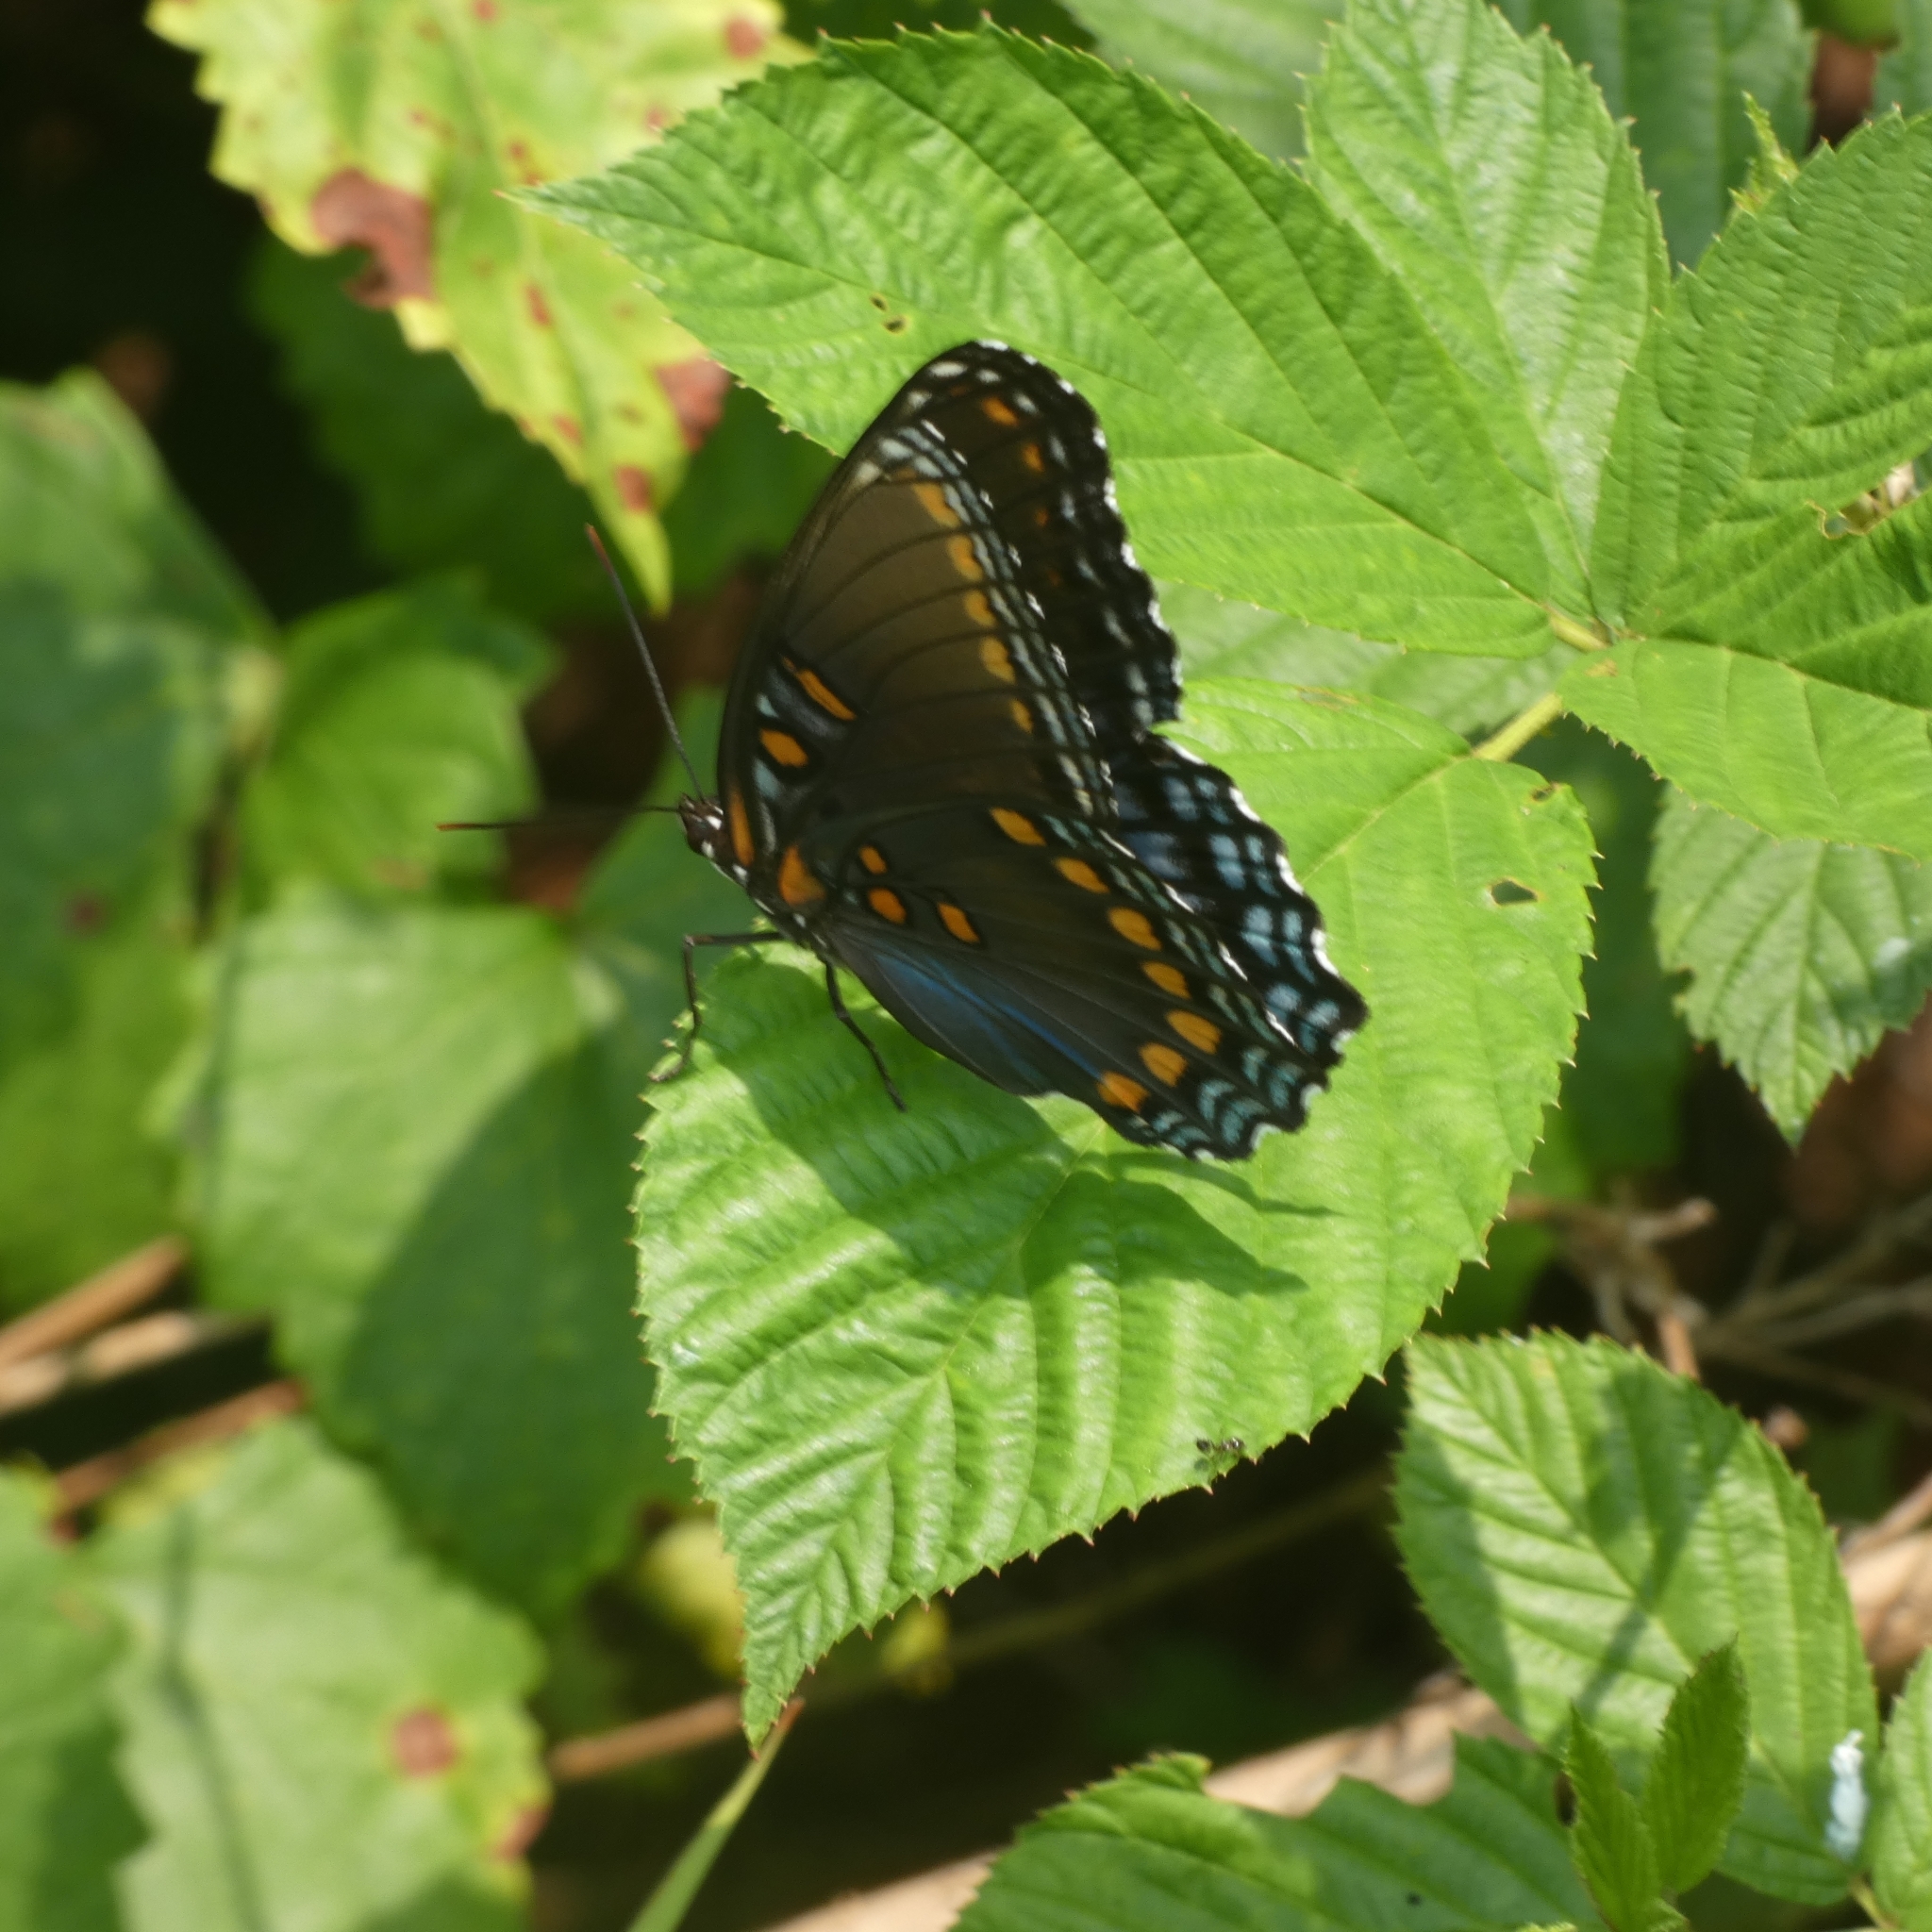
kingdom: Animalia
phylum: Arthropoda
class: Insecta
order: Lepidoptera
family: Nymphalidae
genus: Limenitis
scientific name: Limenitis astyanax
